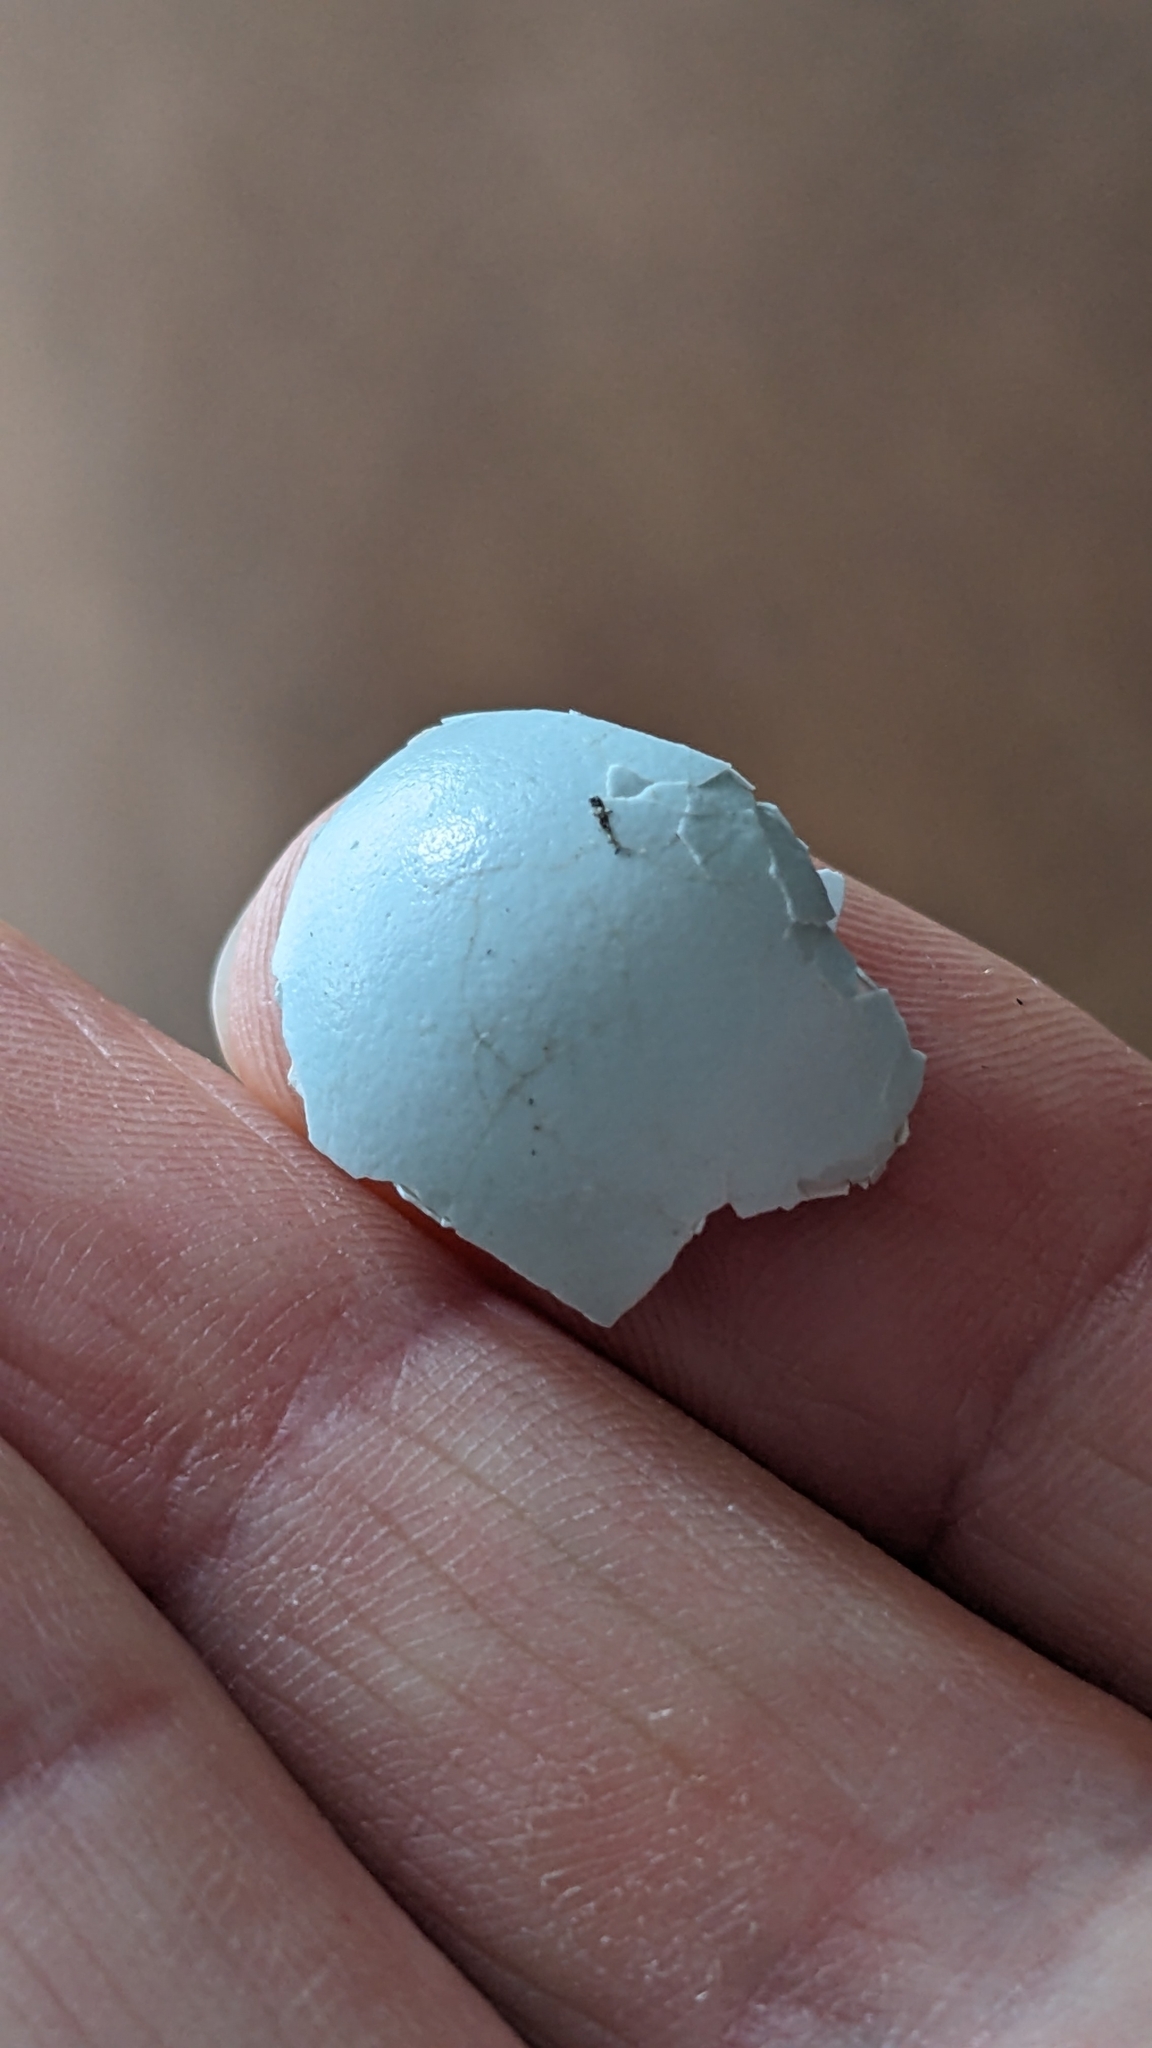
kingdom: Animalia
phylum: Chordata
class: Aves
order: Passeriformes
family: Sturnidae
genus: Sturnus
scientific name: Sturnus vulgaris
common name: Common starling
